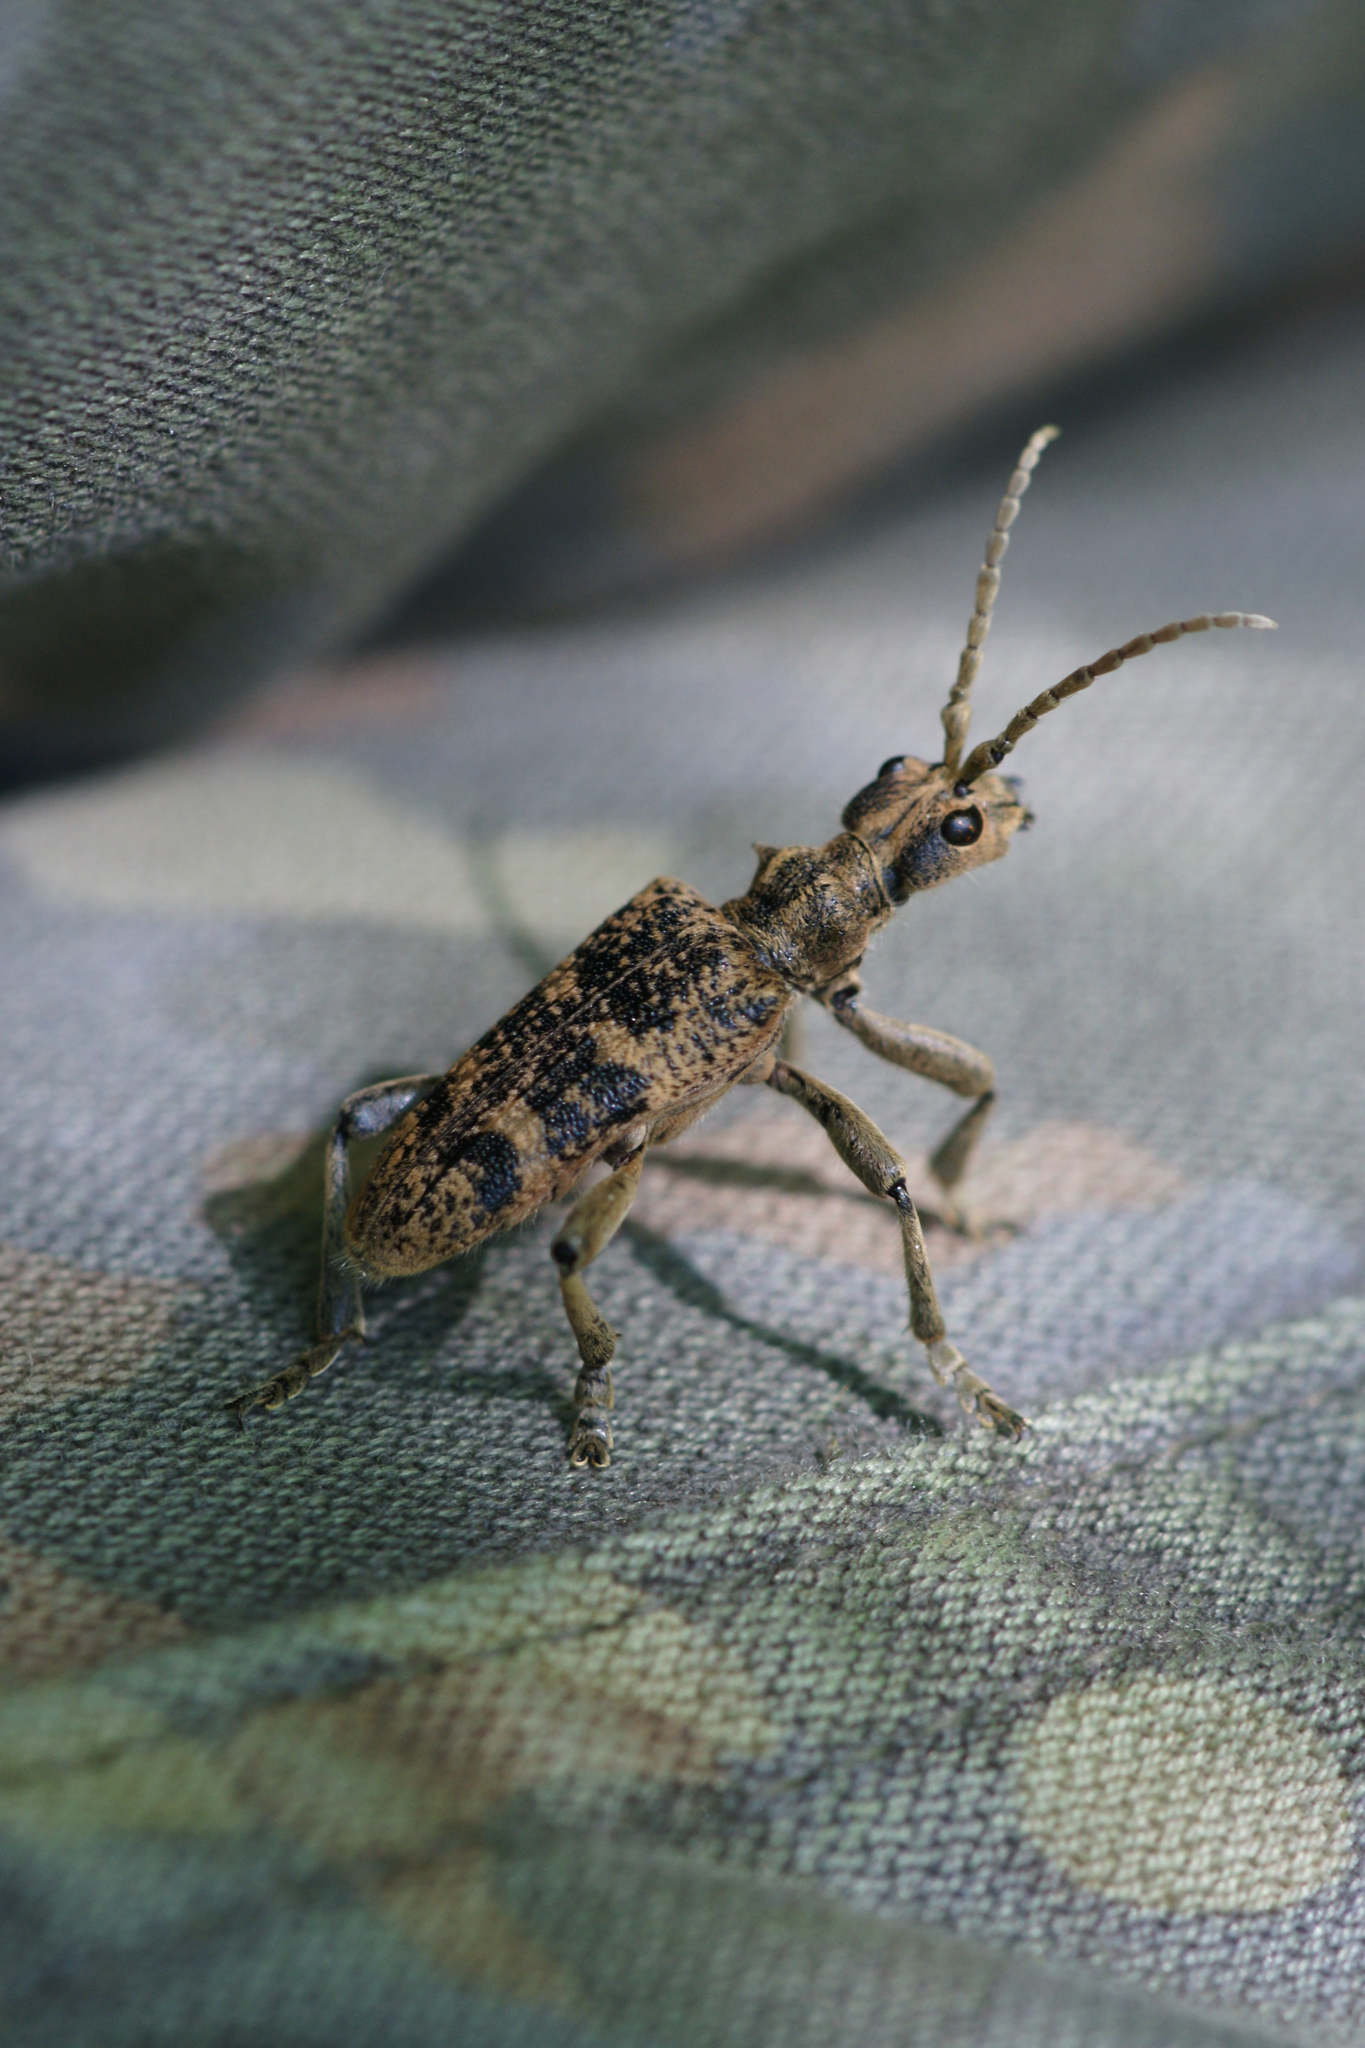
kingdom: Animalia
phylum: Arthropoda
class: Insecta
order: Coleoptera
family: Cerambycidae
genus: Rhagium
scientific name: Rhagium sycophanta
